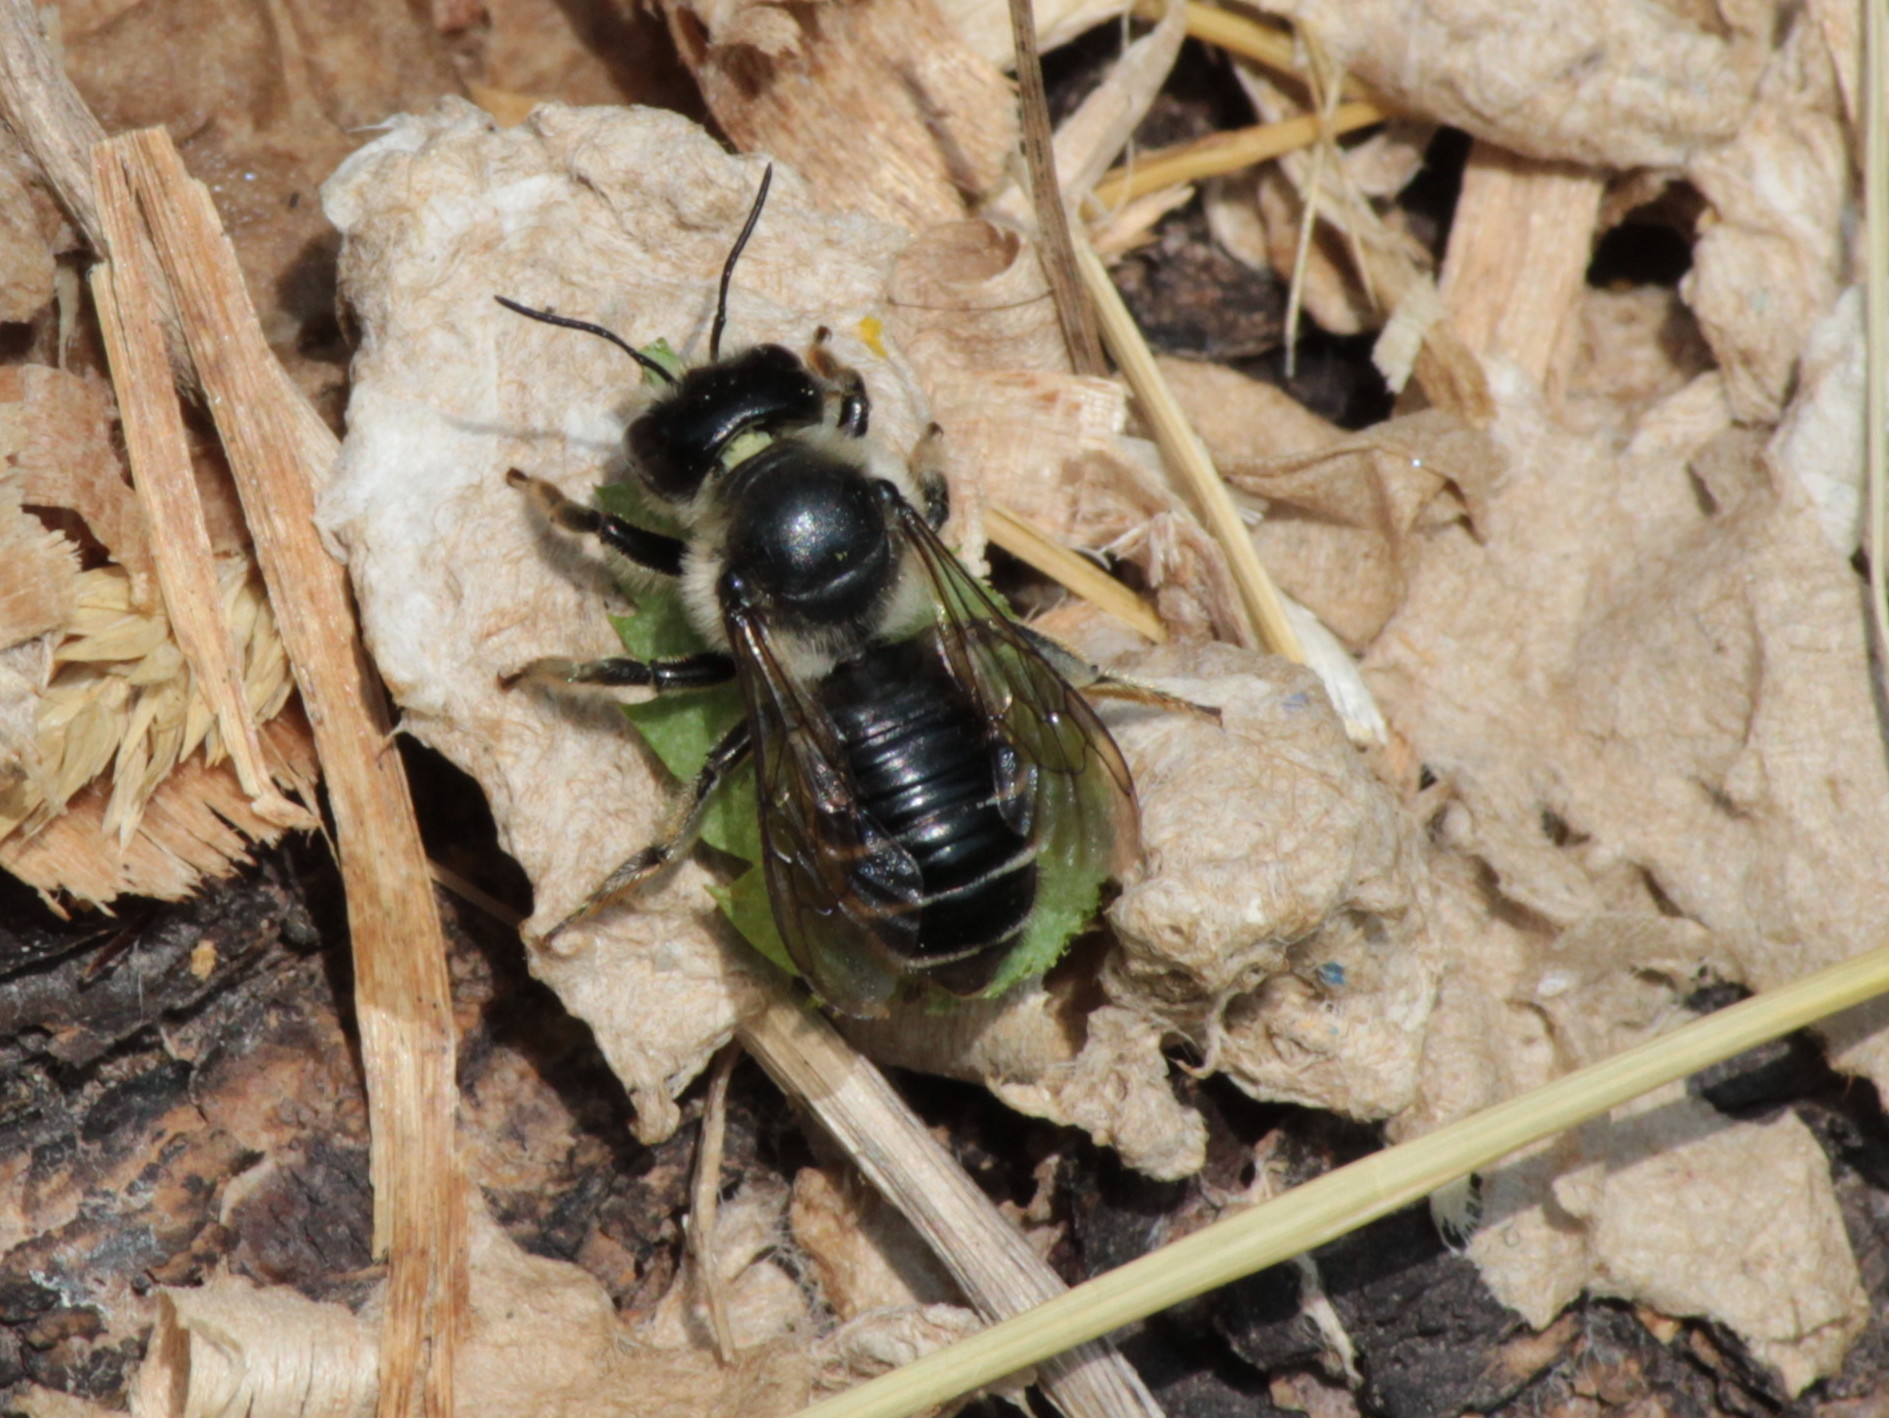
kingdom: Animalia
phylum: Arthropoda
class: Insecta
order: Hymenoptera
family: Megachilidae
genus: Megachile
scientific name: Megachile inermis
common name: Unarmed leafcutter bee
